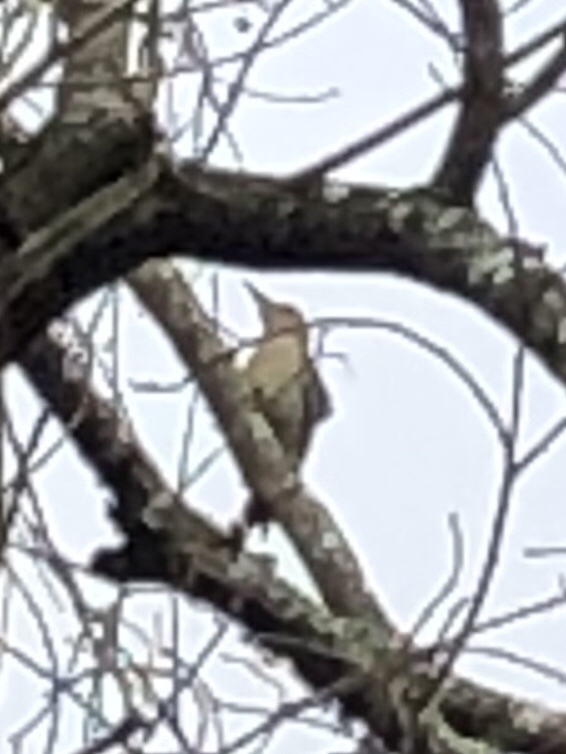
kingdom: Animalia
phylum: Chordata
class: Aves
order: Piciformes
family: Picidae
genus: Melanerpes
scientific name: Melanerpes carolinus
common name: Red-bellied woodpecker
